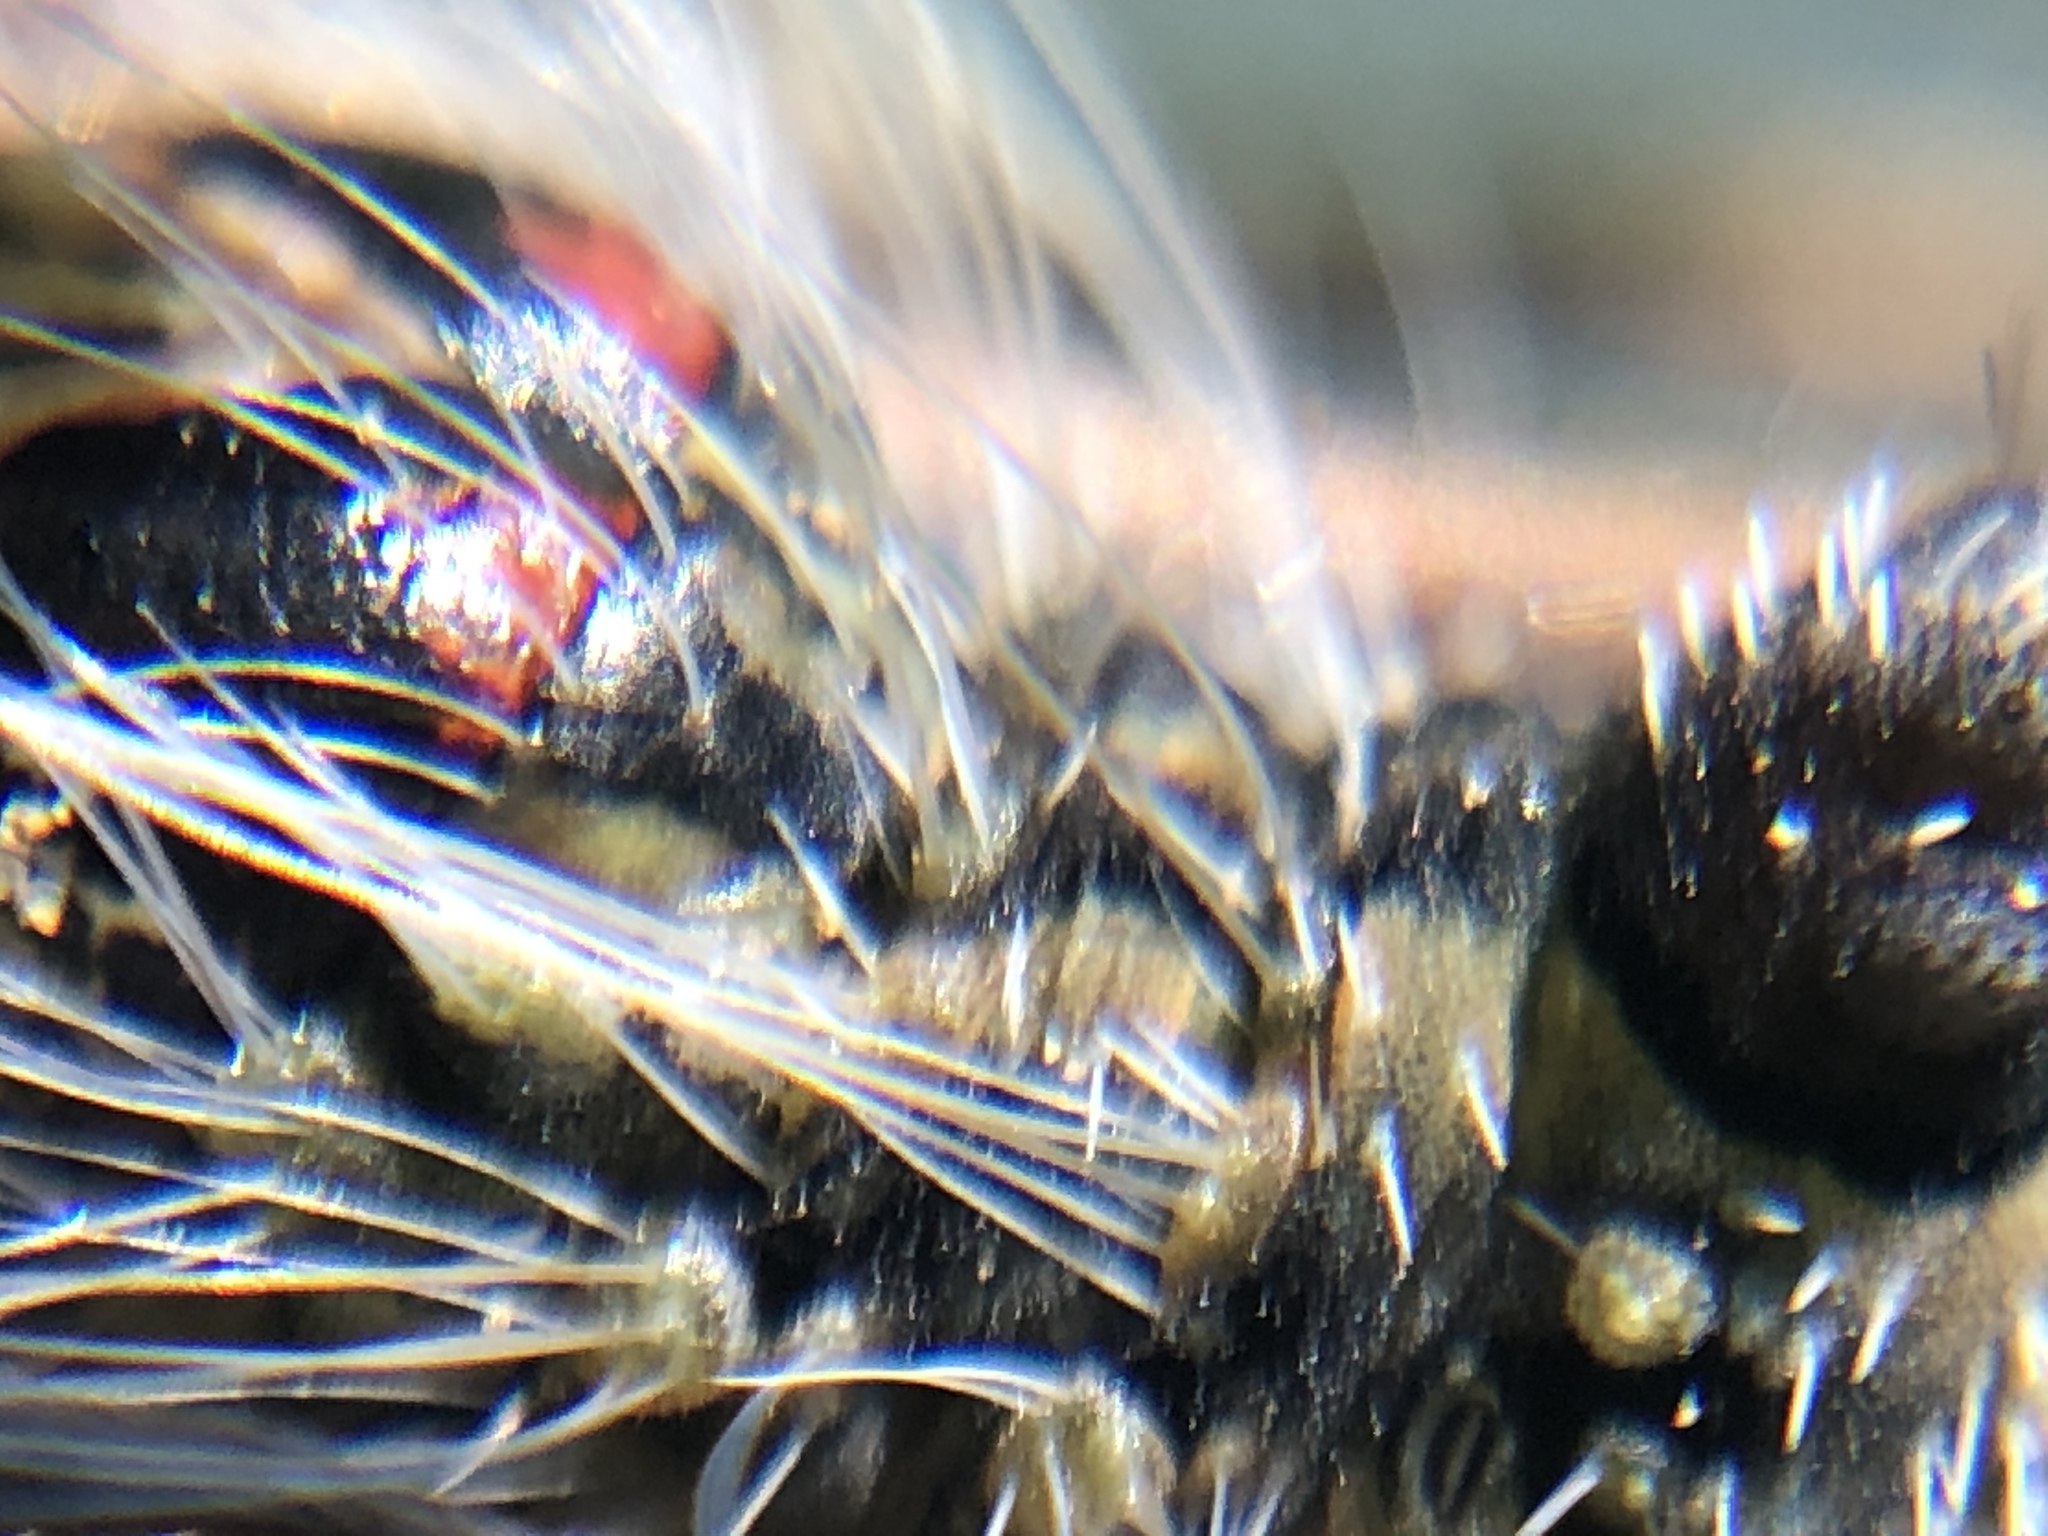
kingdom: Animalia
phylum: Arthropoda
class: Insecta
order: Lepidoptera
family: Noctuidae
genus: Acronicta
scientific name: Acronicta morula
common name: Ochre dagger
